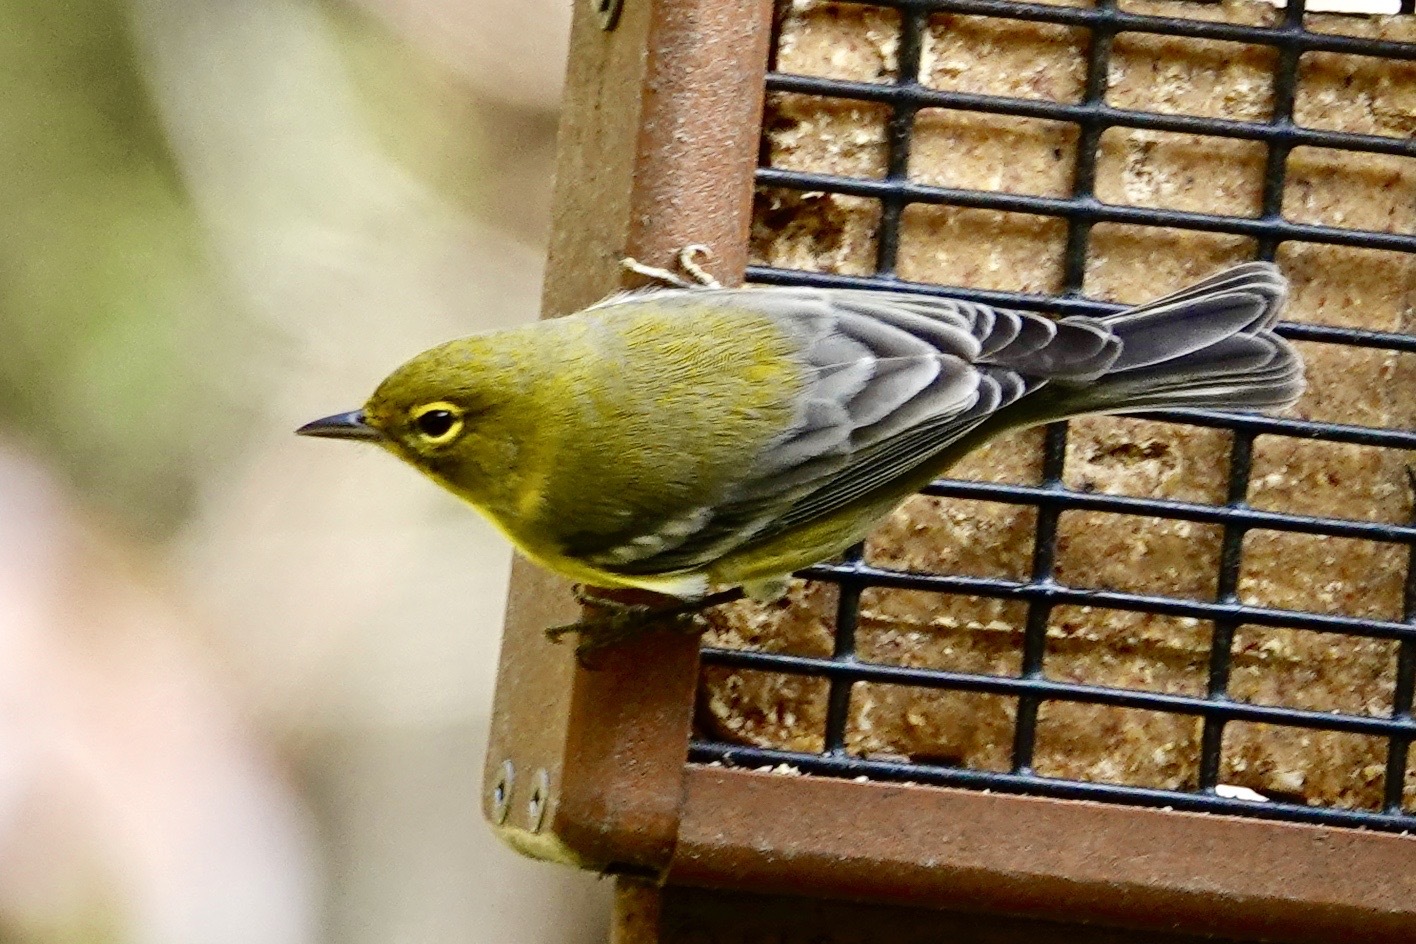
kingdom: Animalia
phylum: Chordata
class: Aves
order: Passeriformes
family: Parulidae
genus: Setophaga
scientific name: Setophaga pinus
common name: Pine warbler
